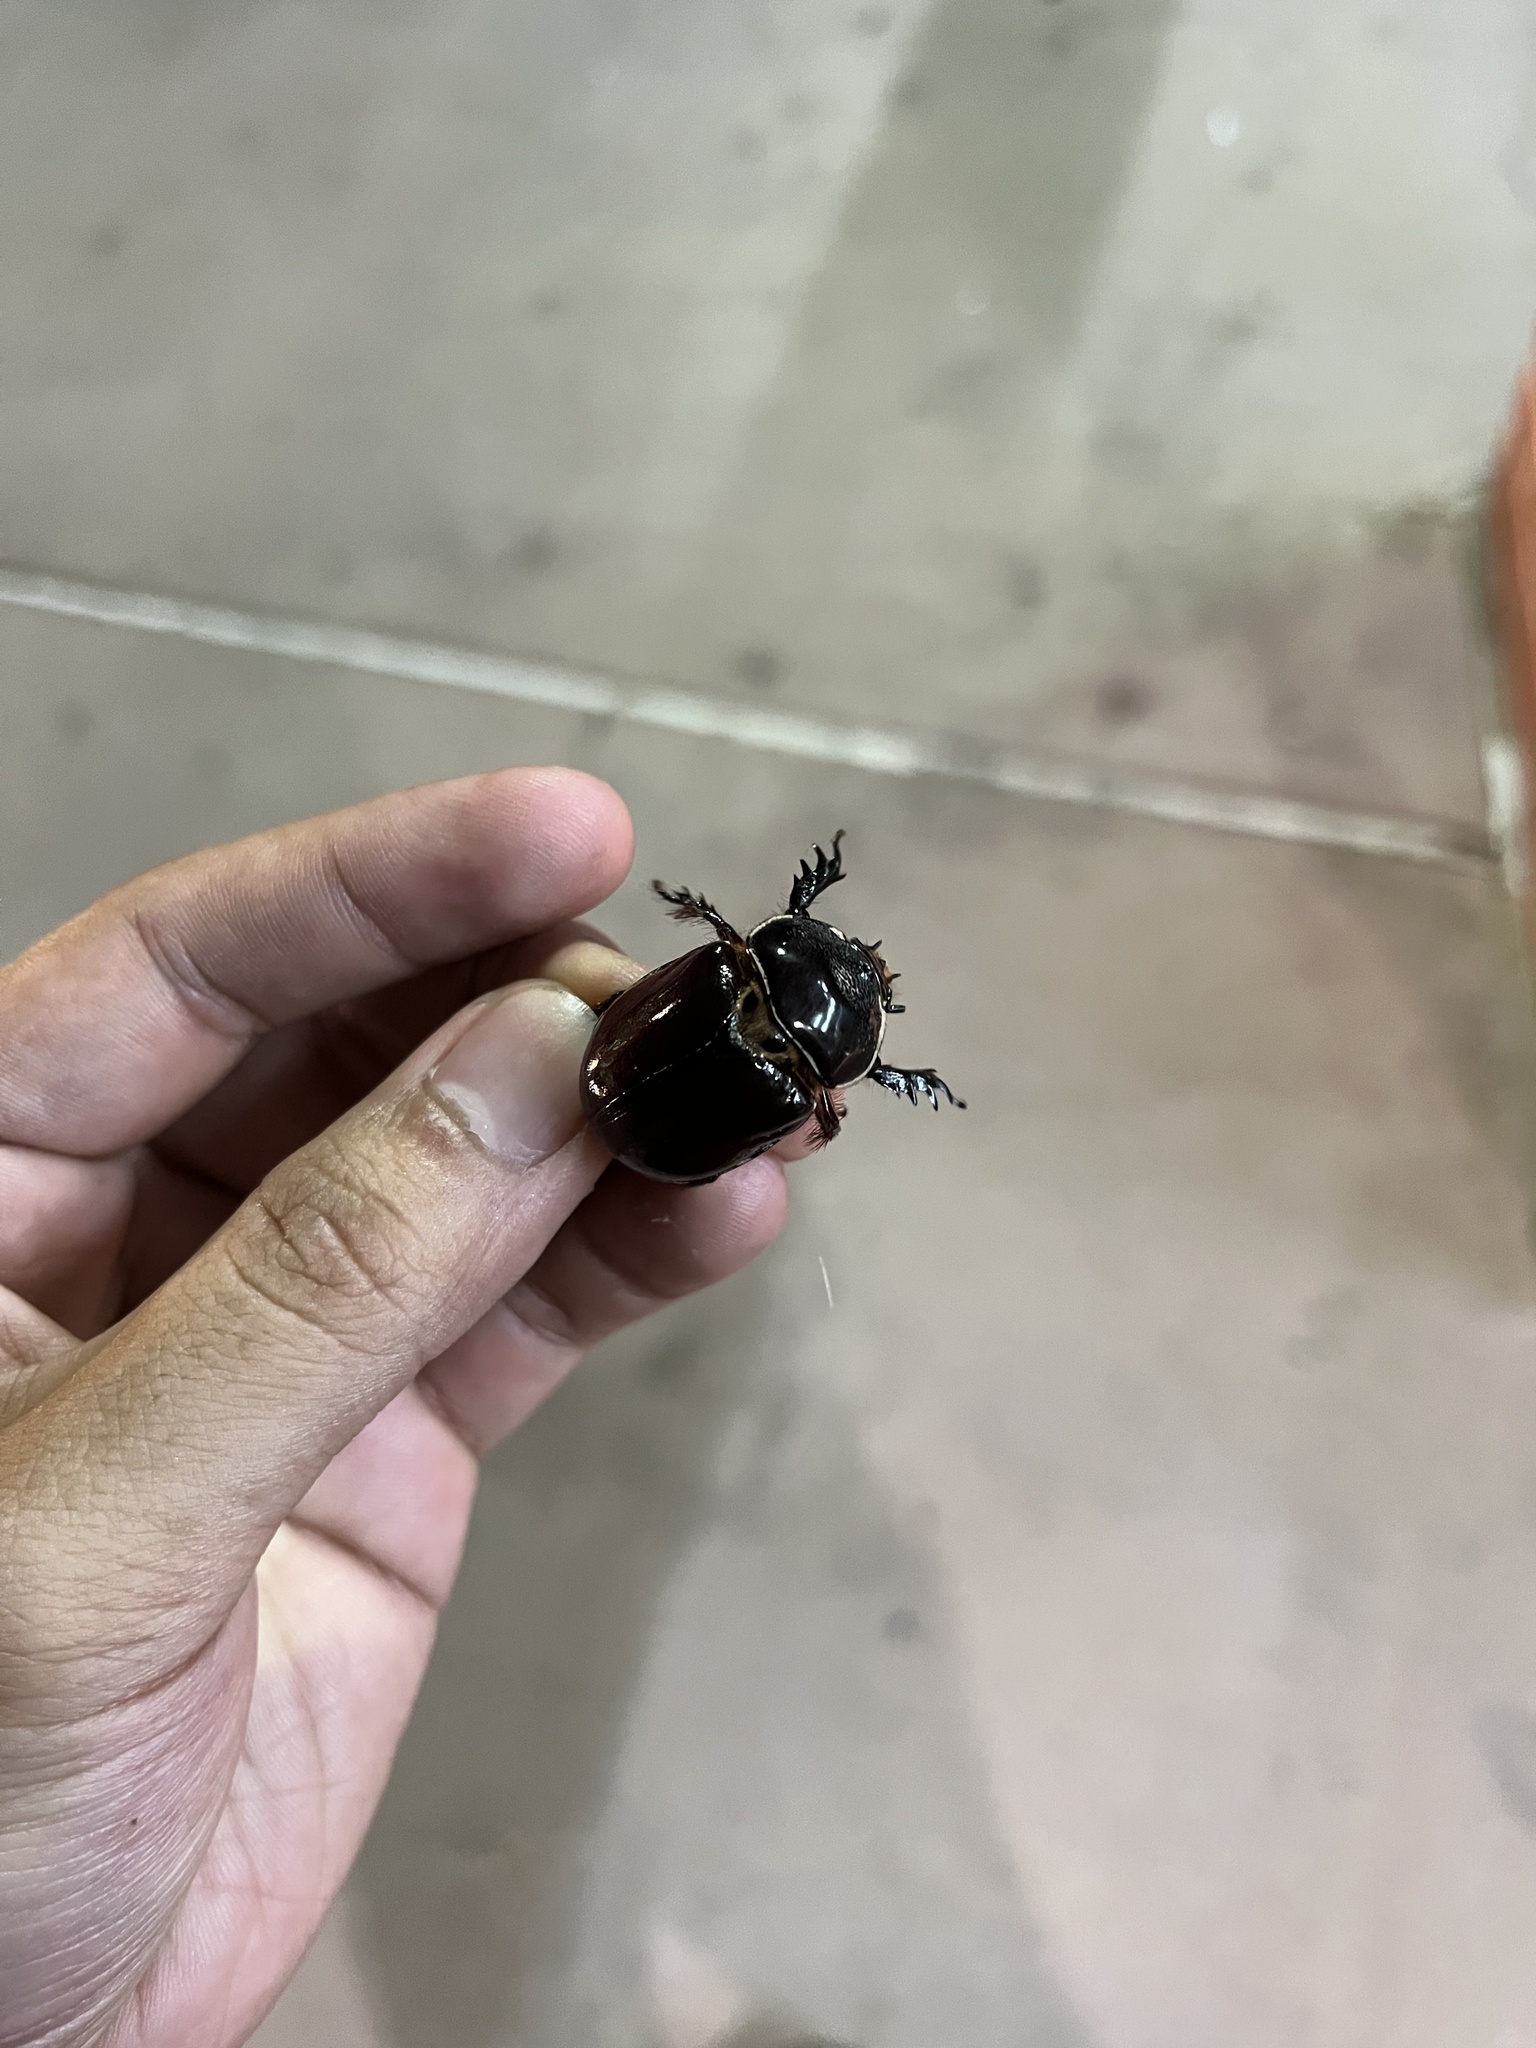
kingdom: Animalia
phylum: Arthropoda
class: Insecta
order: Coleoptera
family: Scarabaeidae
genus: Strategus
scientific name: Strategus mormon
